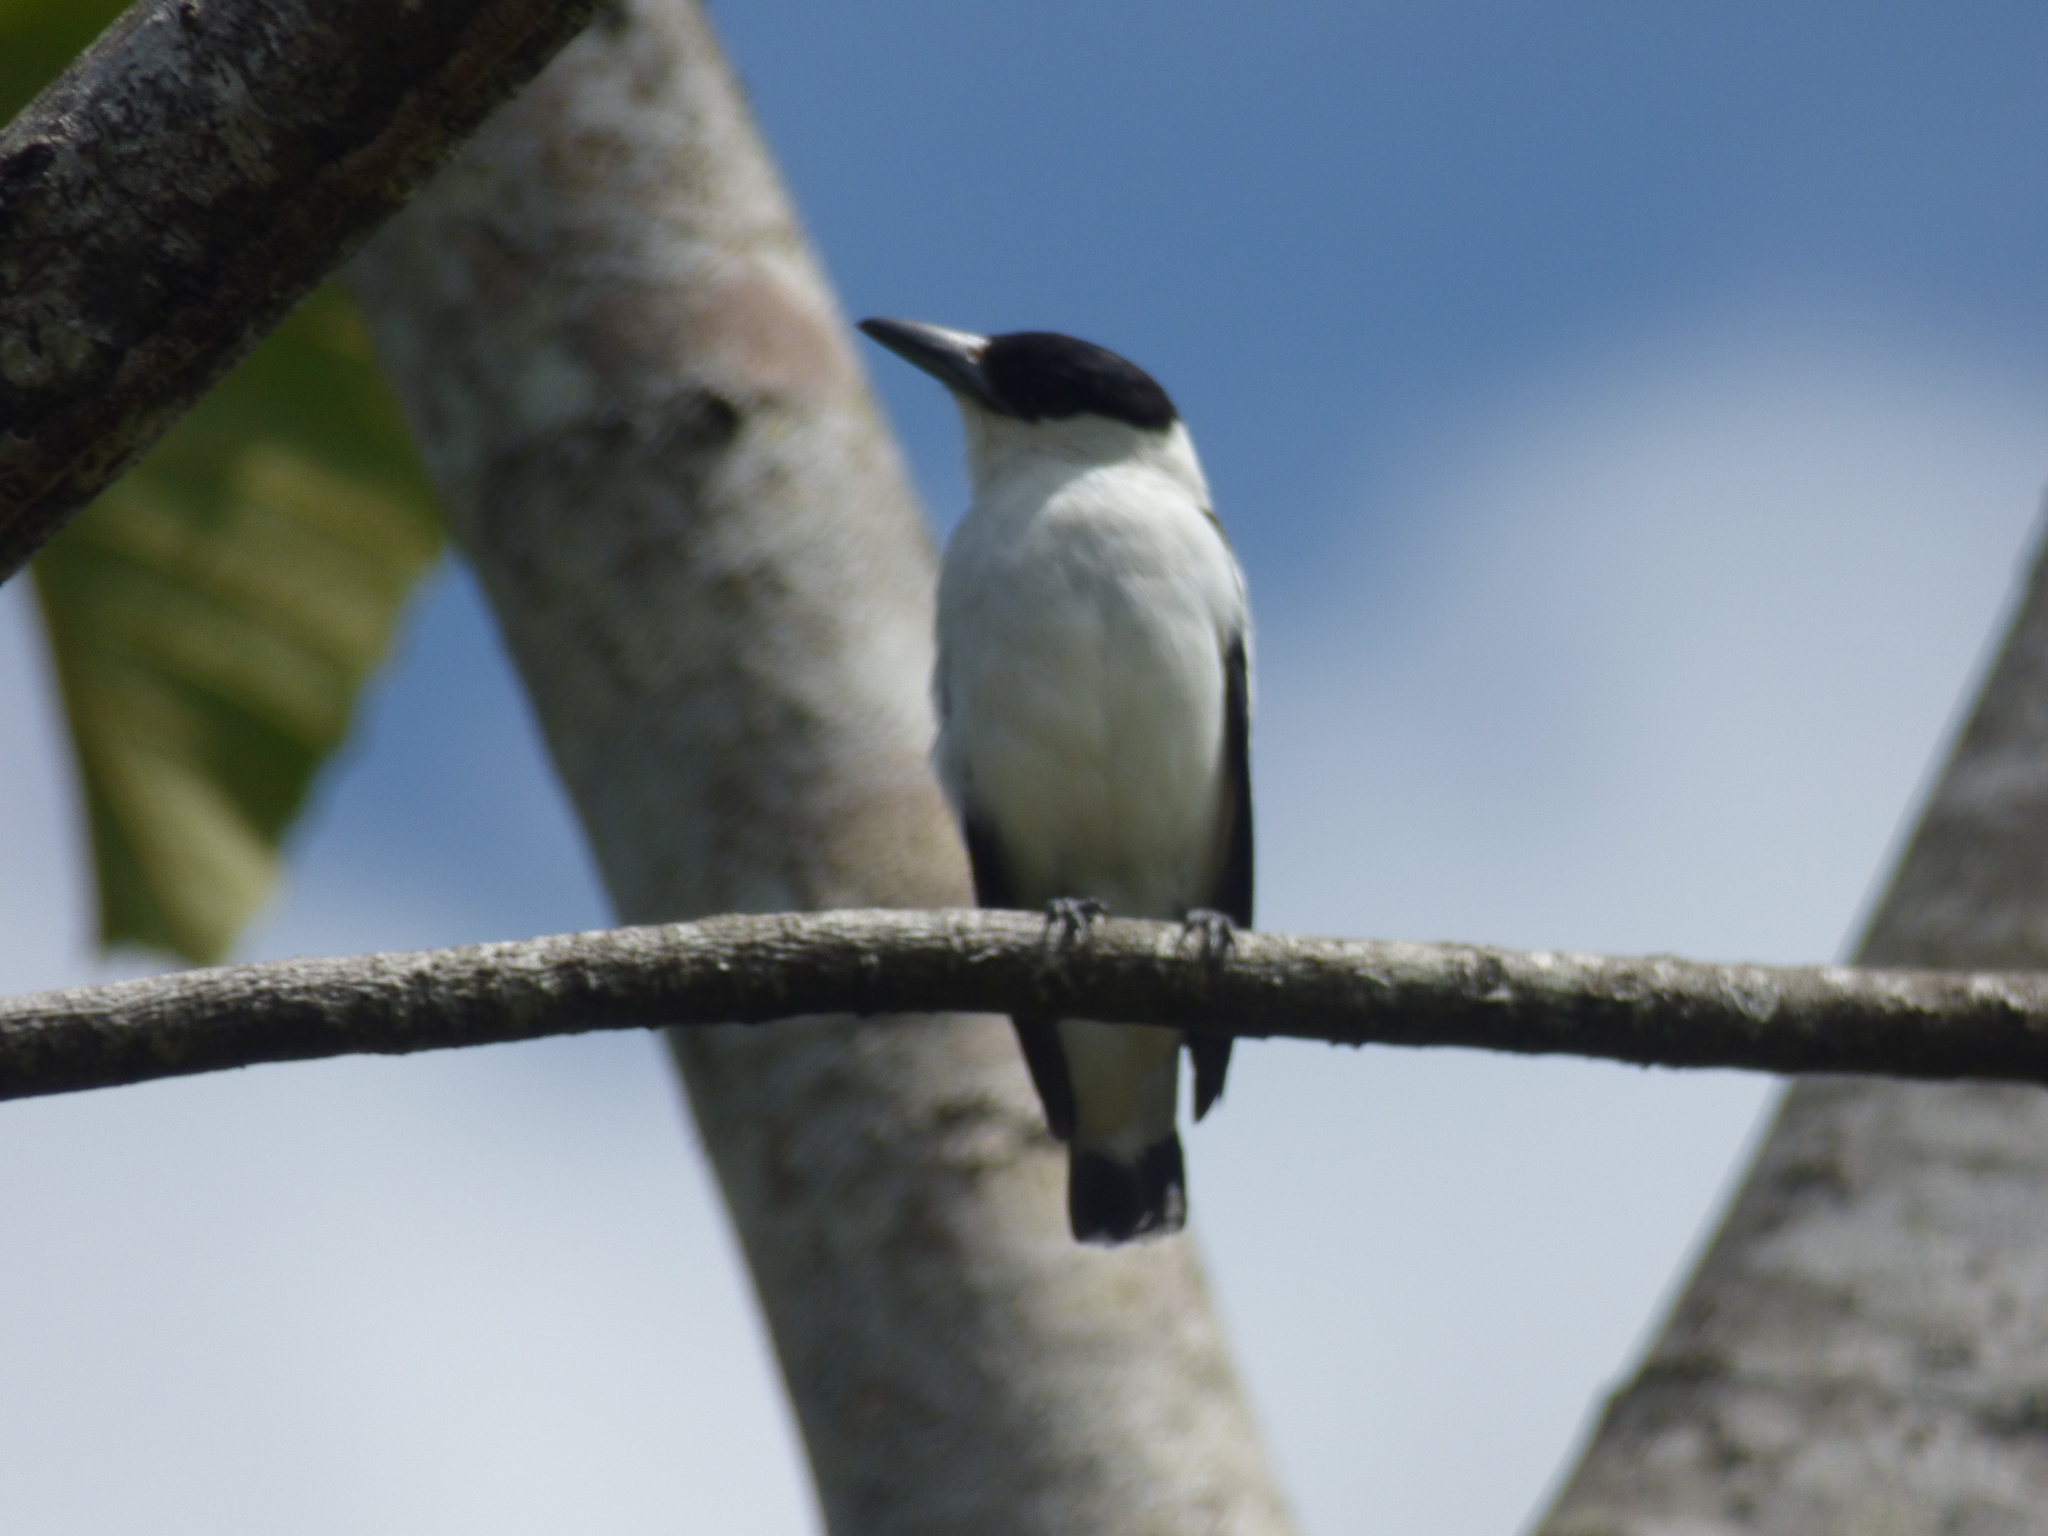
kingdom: Animalia
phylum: Chordata
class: Aves
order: Passeriformes
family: Cotingidae
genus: Tityra
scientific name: Tityra inquisitor
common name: Black-crowned tityra
